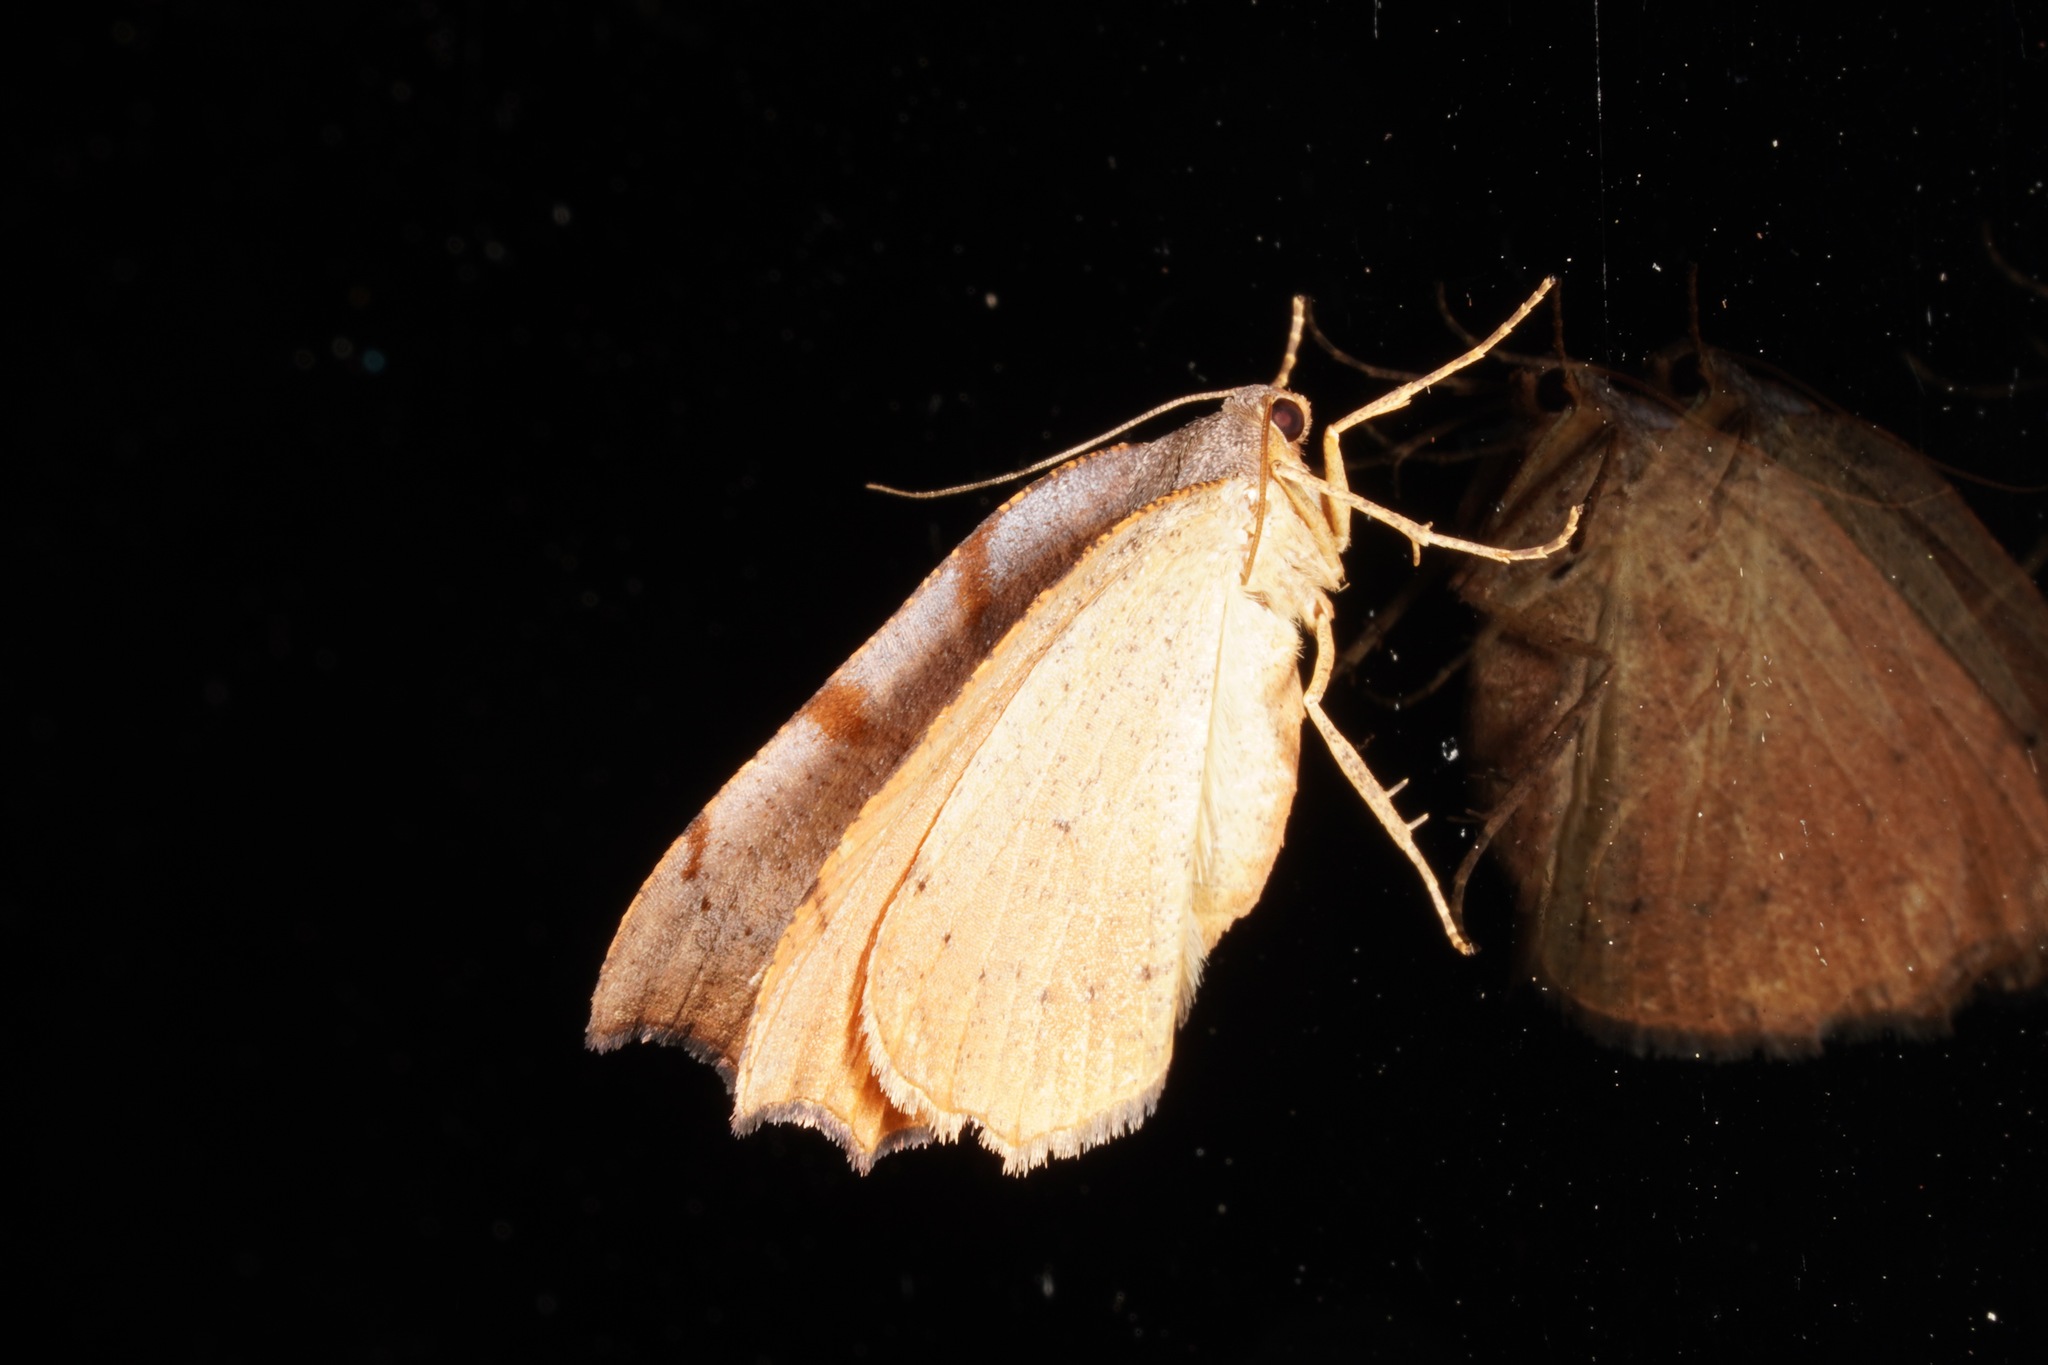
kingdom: Animalia
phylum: Arthropoda
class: Insecta
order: Lepidoptera
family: Geometridae
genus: Sestra
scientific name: Sestra flexata
